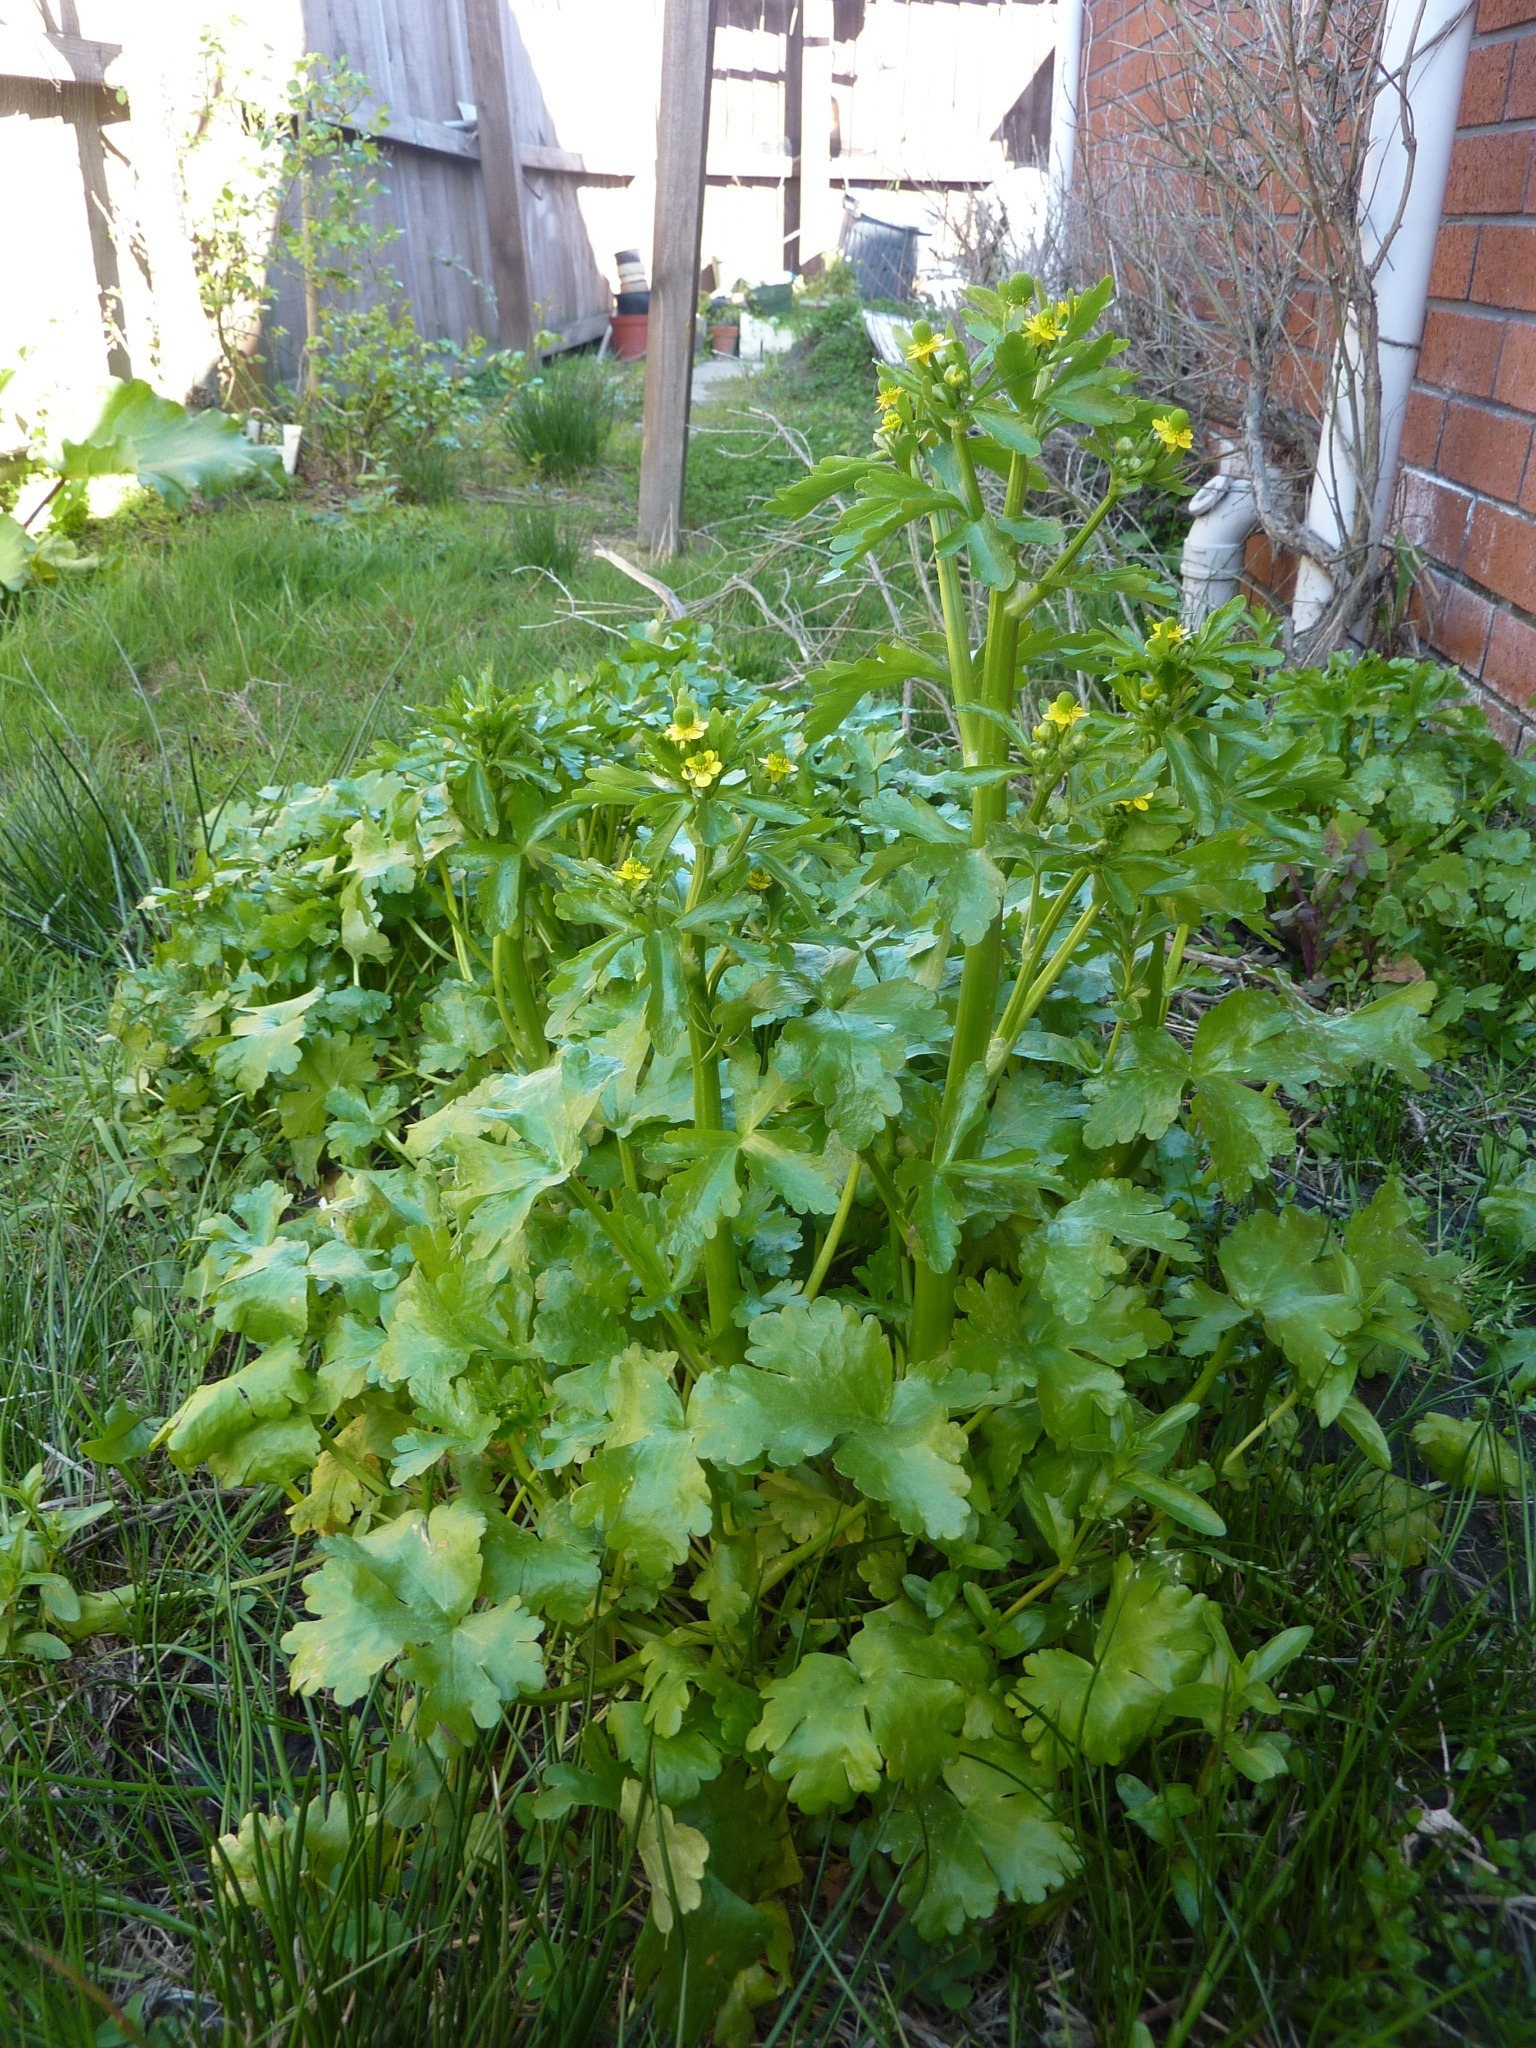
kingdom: Plantae
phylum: Tracheophyta
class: Magnoliopsida
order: Ranunculales
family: Ranunculaceae
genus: Ranunculus
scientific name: Ranunculus sceleratus
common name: Celery-leaved buttercup
